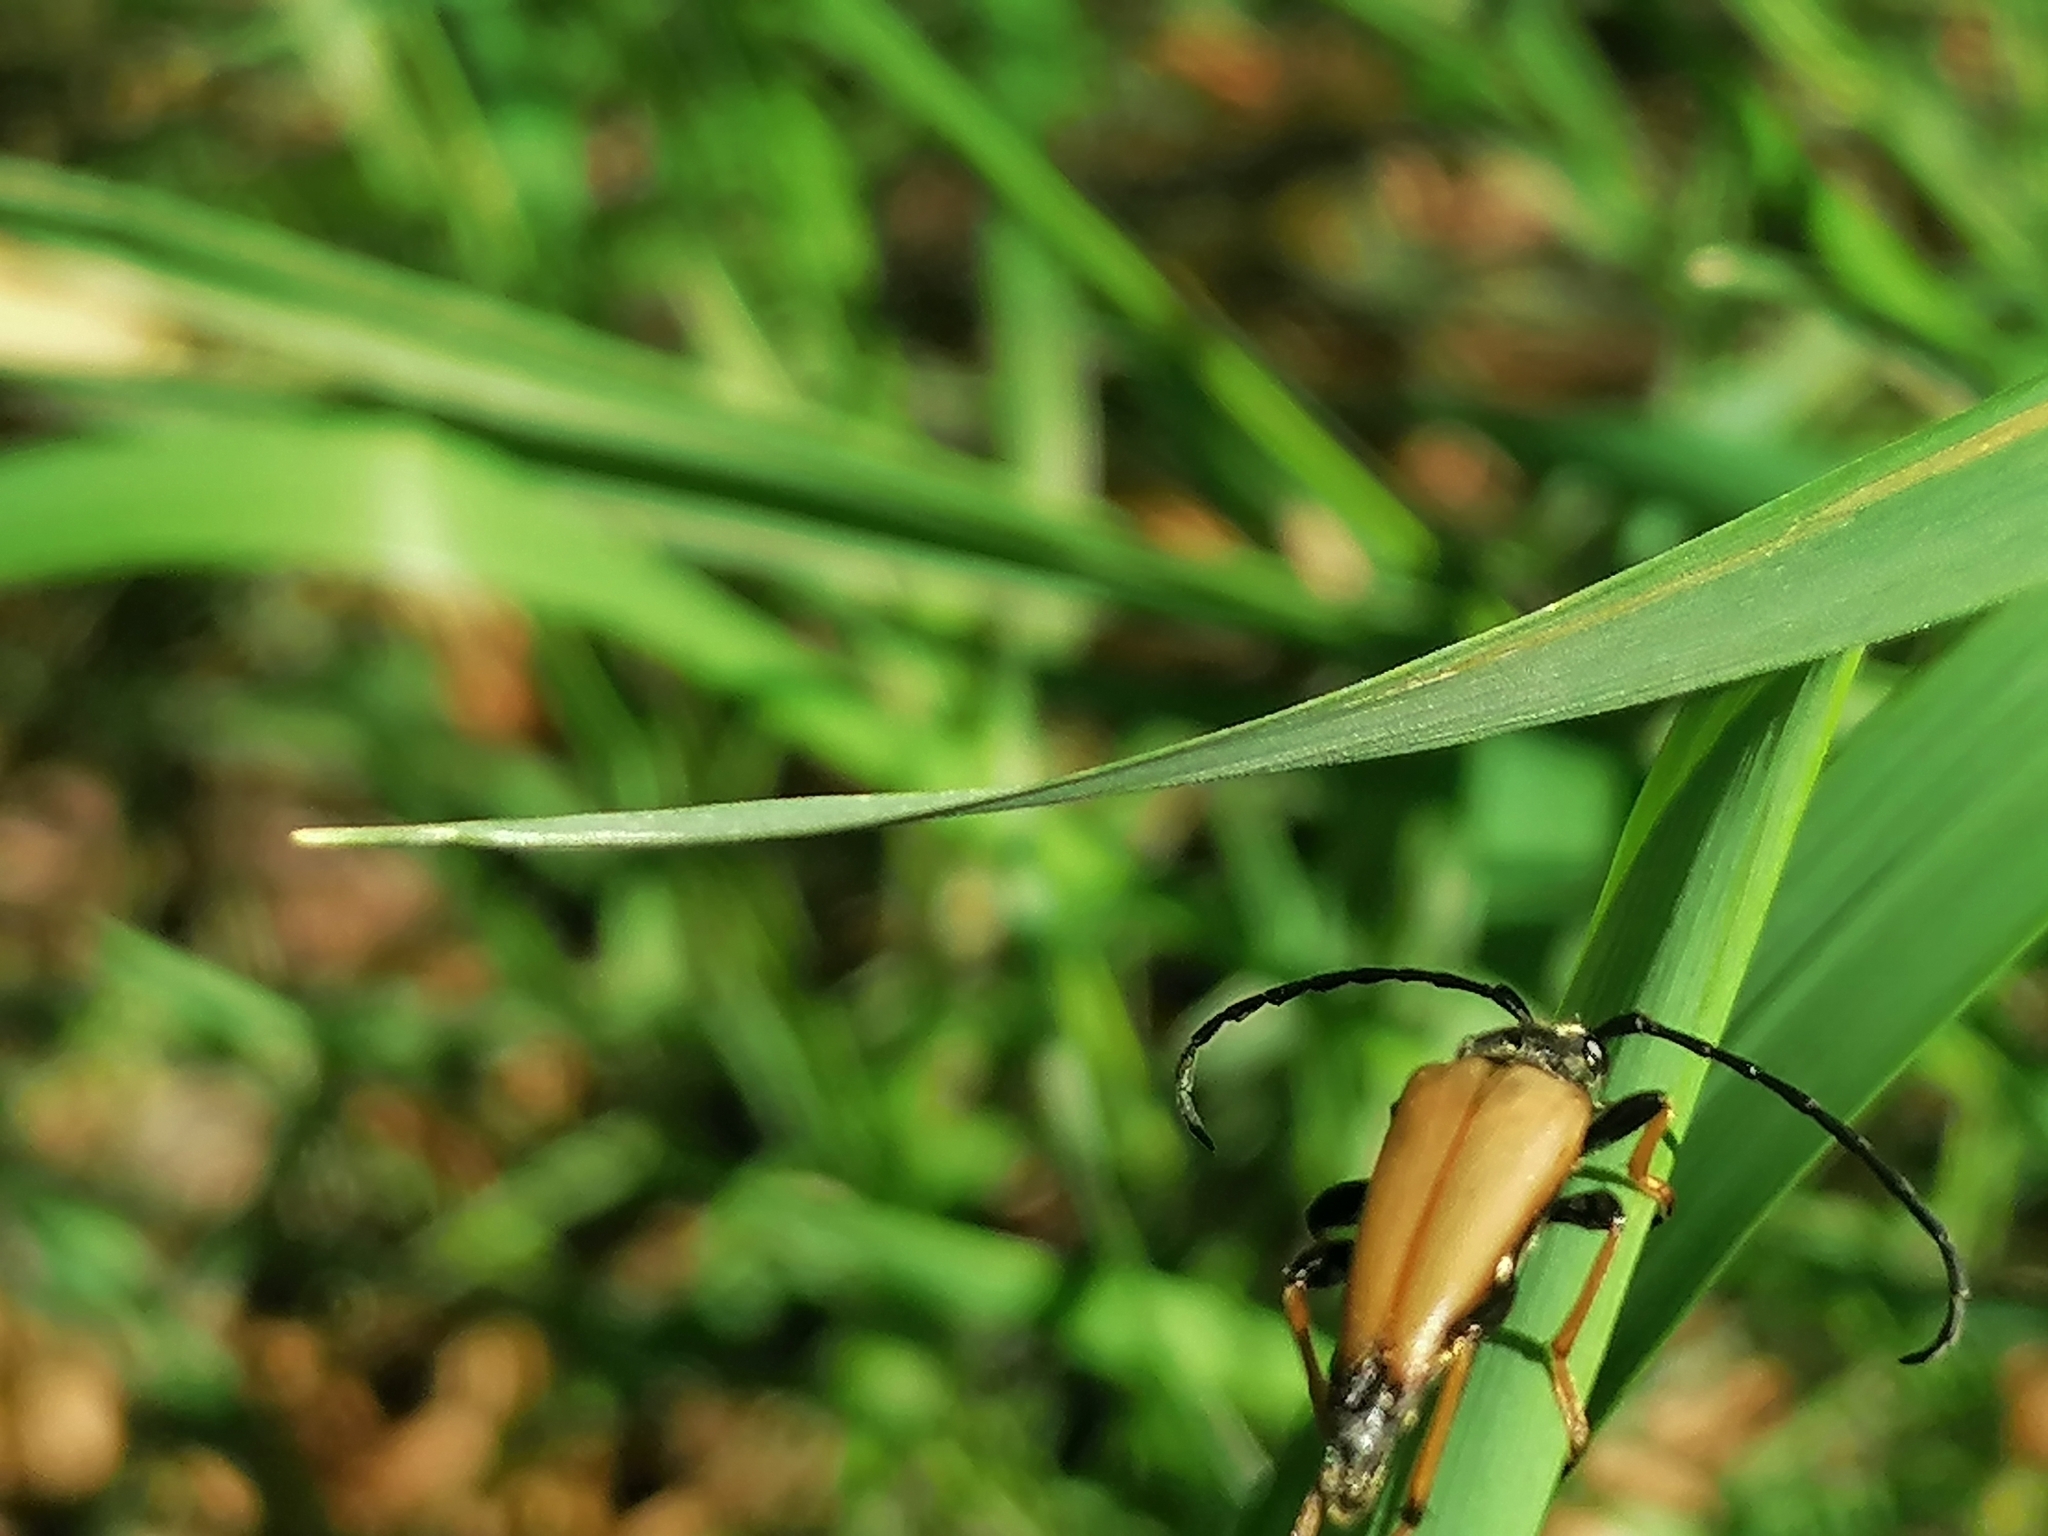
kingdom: Animalia
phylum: Arthropoda
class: Insecta
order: Coleoptera
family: Cerambycidae
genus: Stictoleptura
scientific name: Stictoleptura rubra
